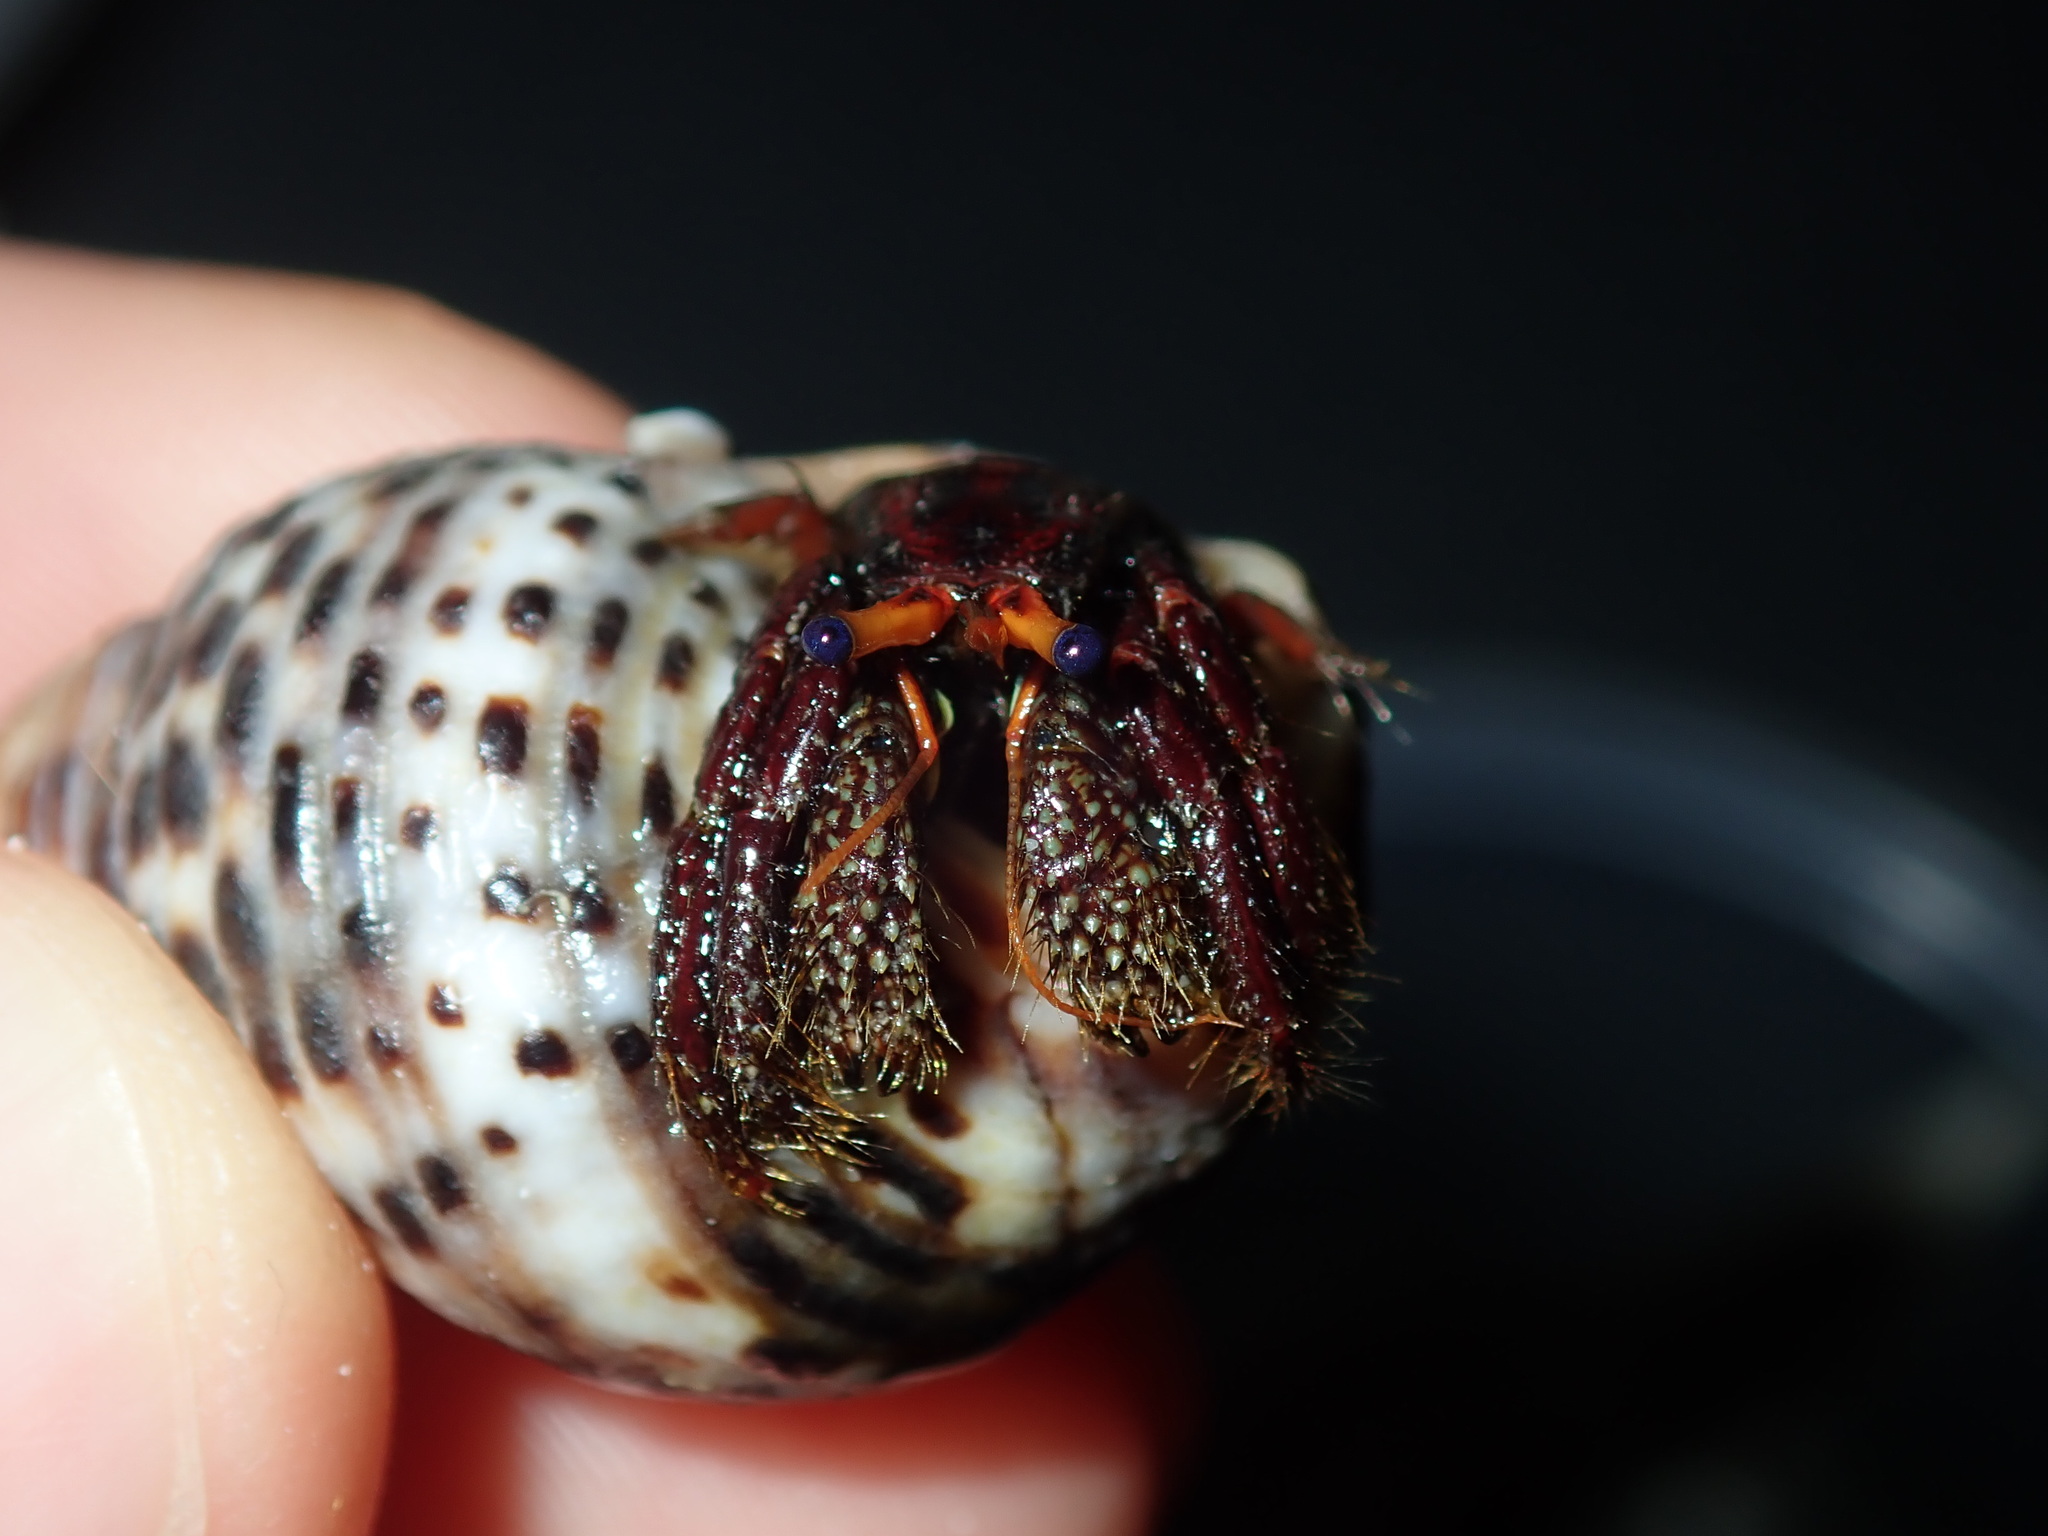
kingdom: Animalia
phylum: Arthropoda
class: Malacostraca
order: Decapoda
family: Diogenidae
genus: Clibanarius
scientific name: Clibanarius corallinus
